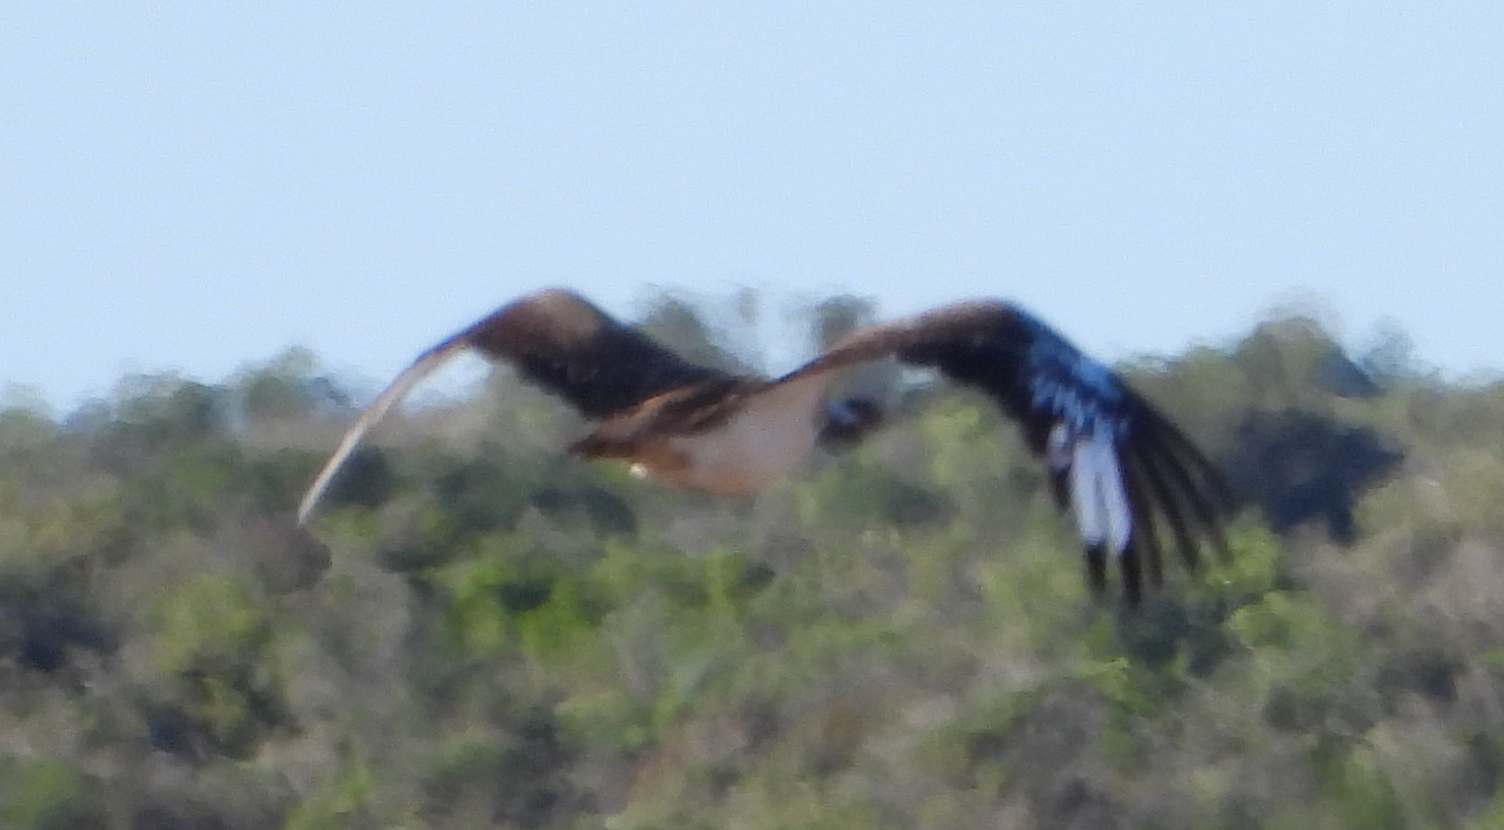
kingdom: Animalia
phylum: Chordata
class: Aves
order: Otidiformes
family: Otididae
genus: Neotis
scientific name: Neotis ludwigii
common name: Ludwig's bustard
